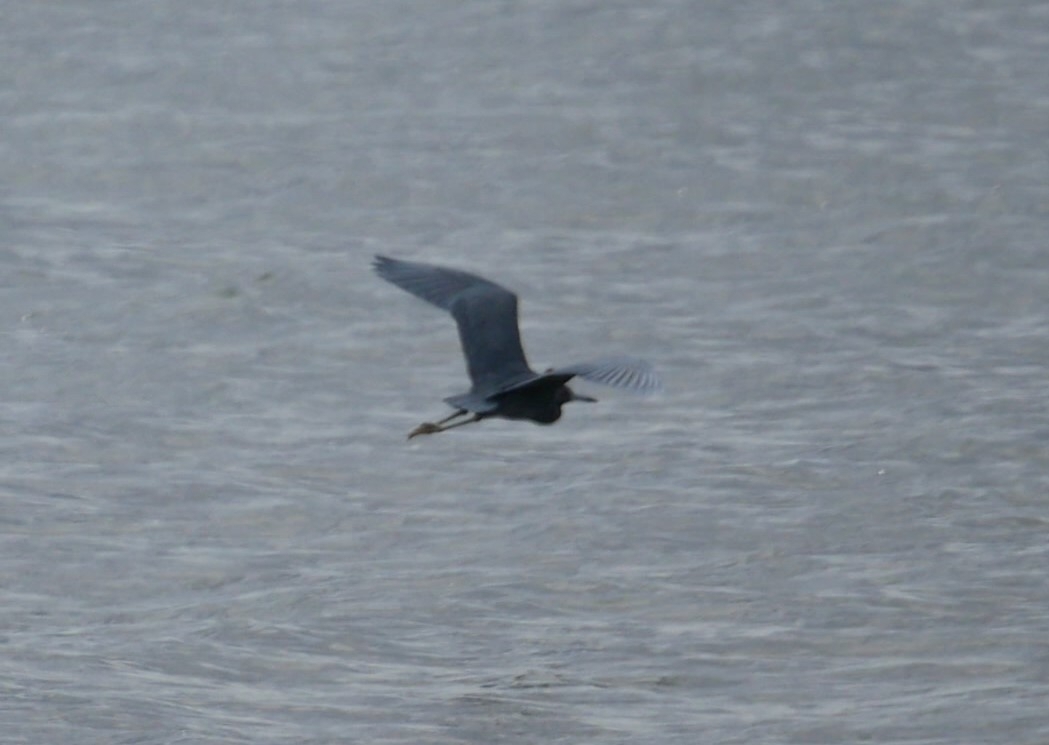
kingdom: Animalia
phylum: Chordata
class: Aves
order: Pelecaniformes
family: Ardeidae
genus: Egretta
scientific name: Egretta caerulea
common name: Little blue heron
